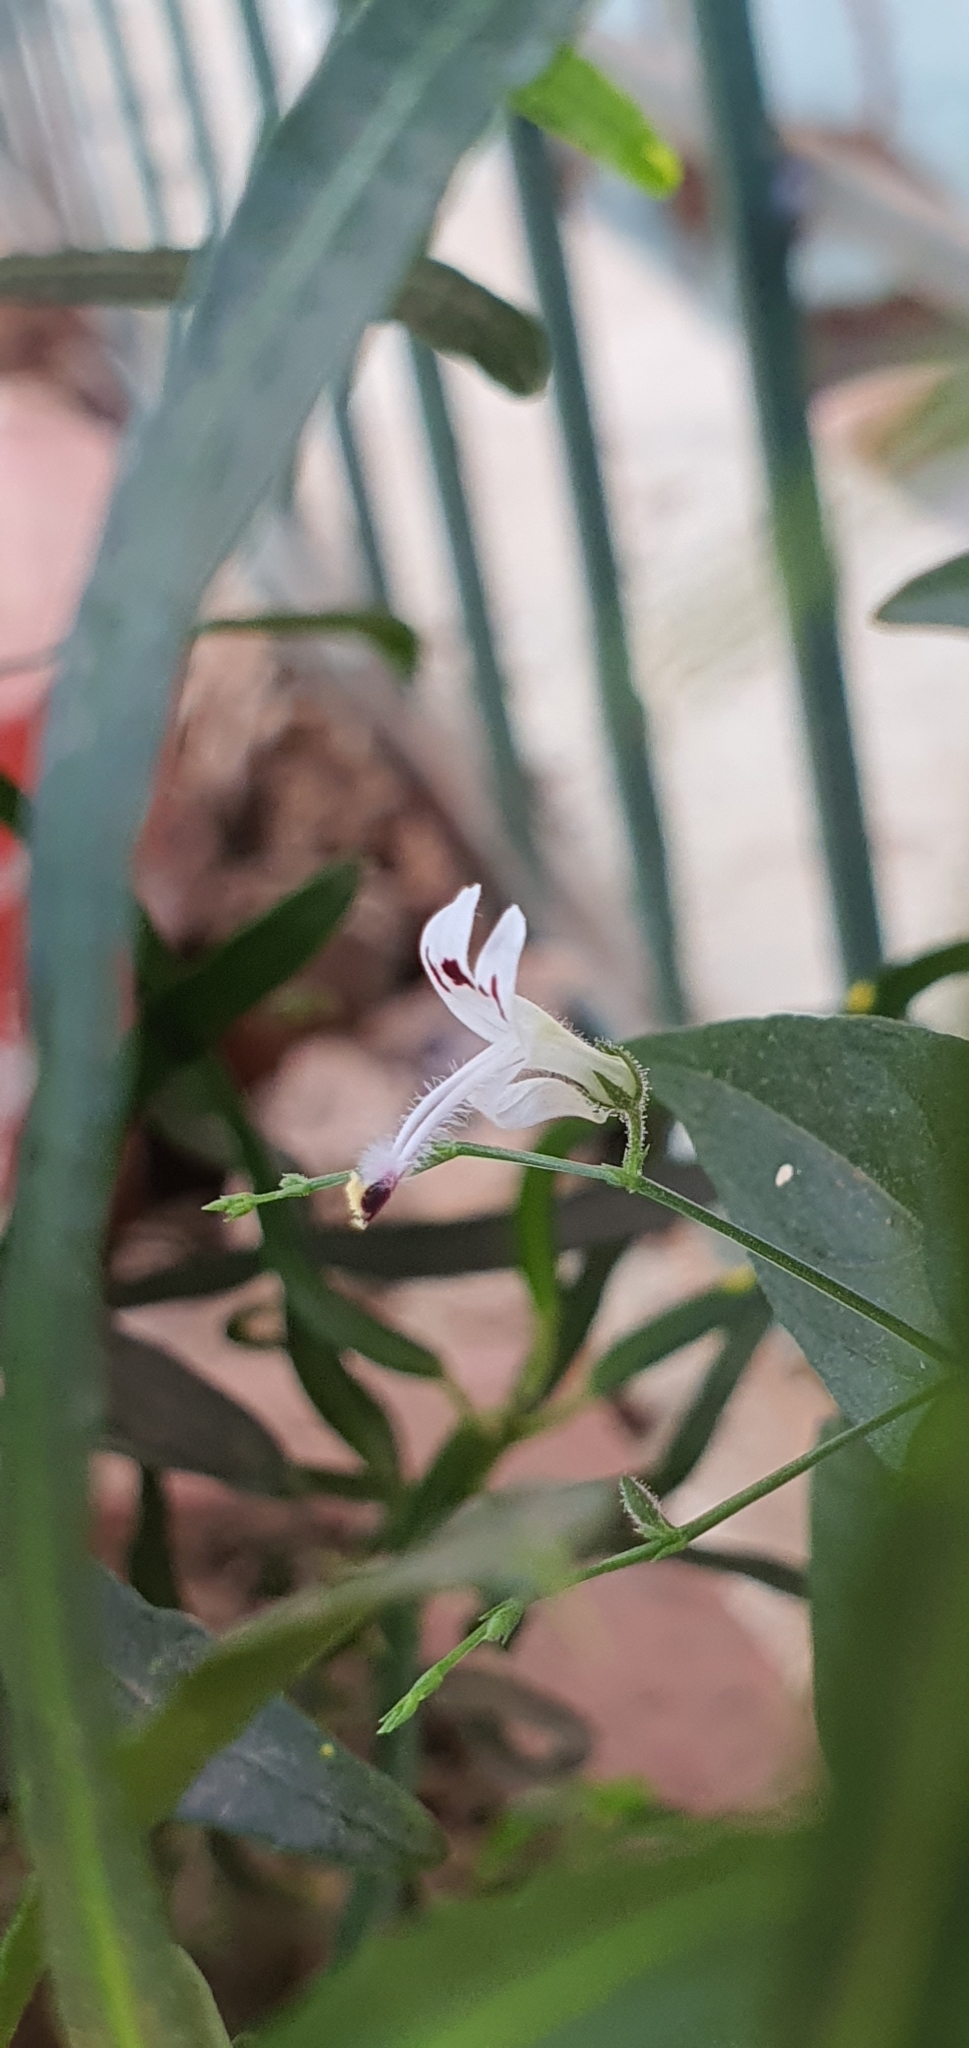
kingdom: Plantae
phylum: Tracheophyta
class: Magnoliopsida
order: Lamiales
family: Acanthaceae
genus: Andrographis
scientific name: Andrographis paniculata
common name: Green chireta
